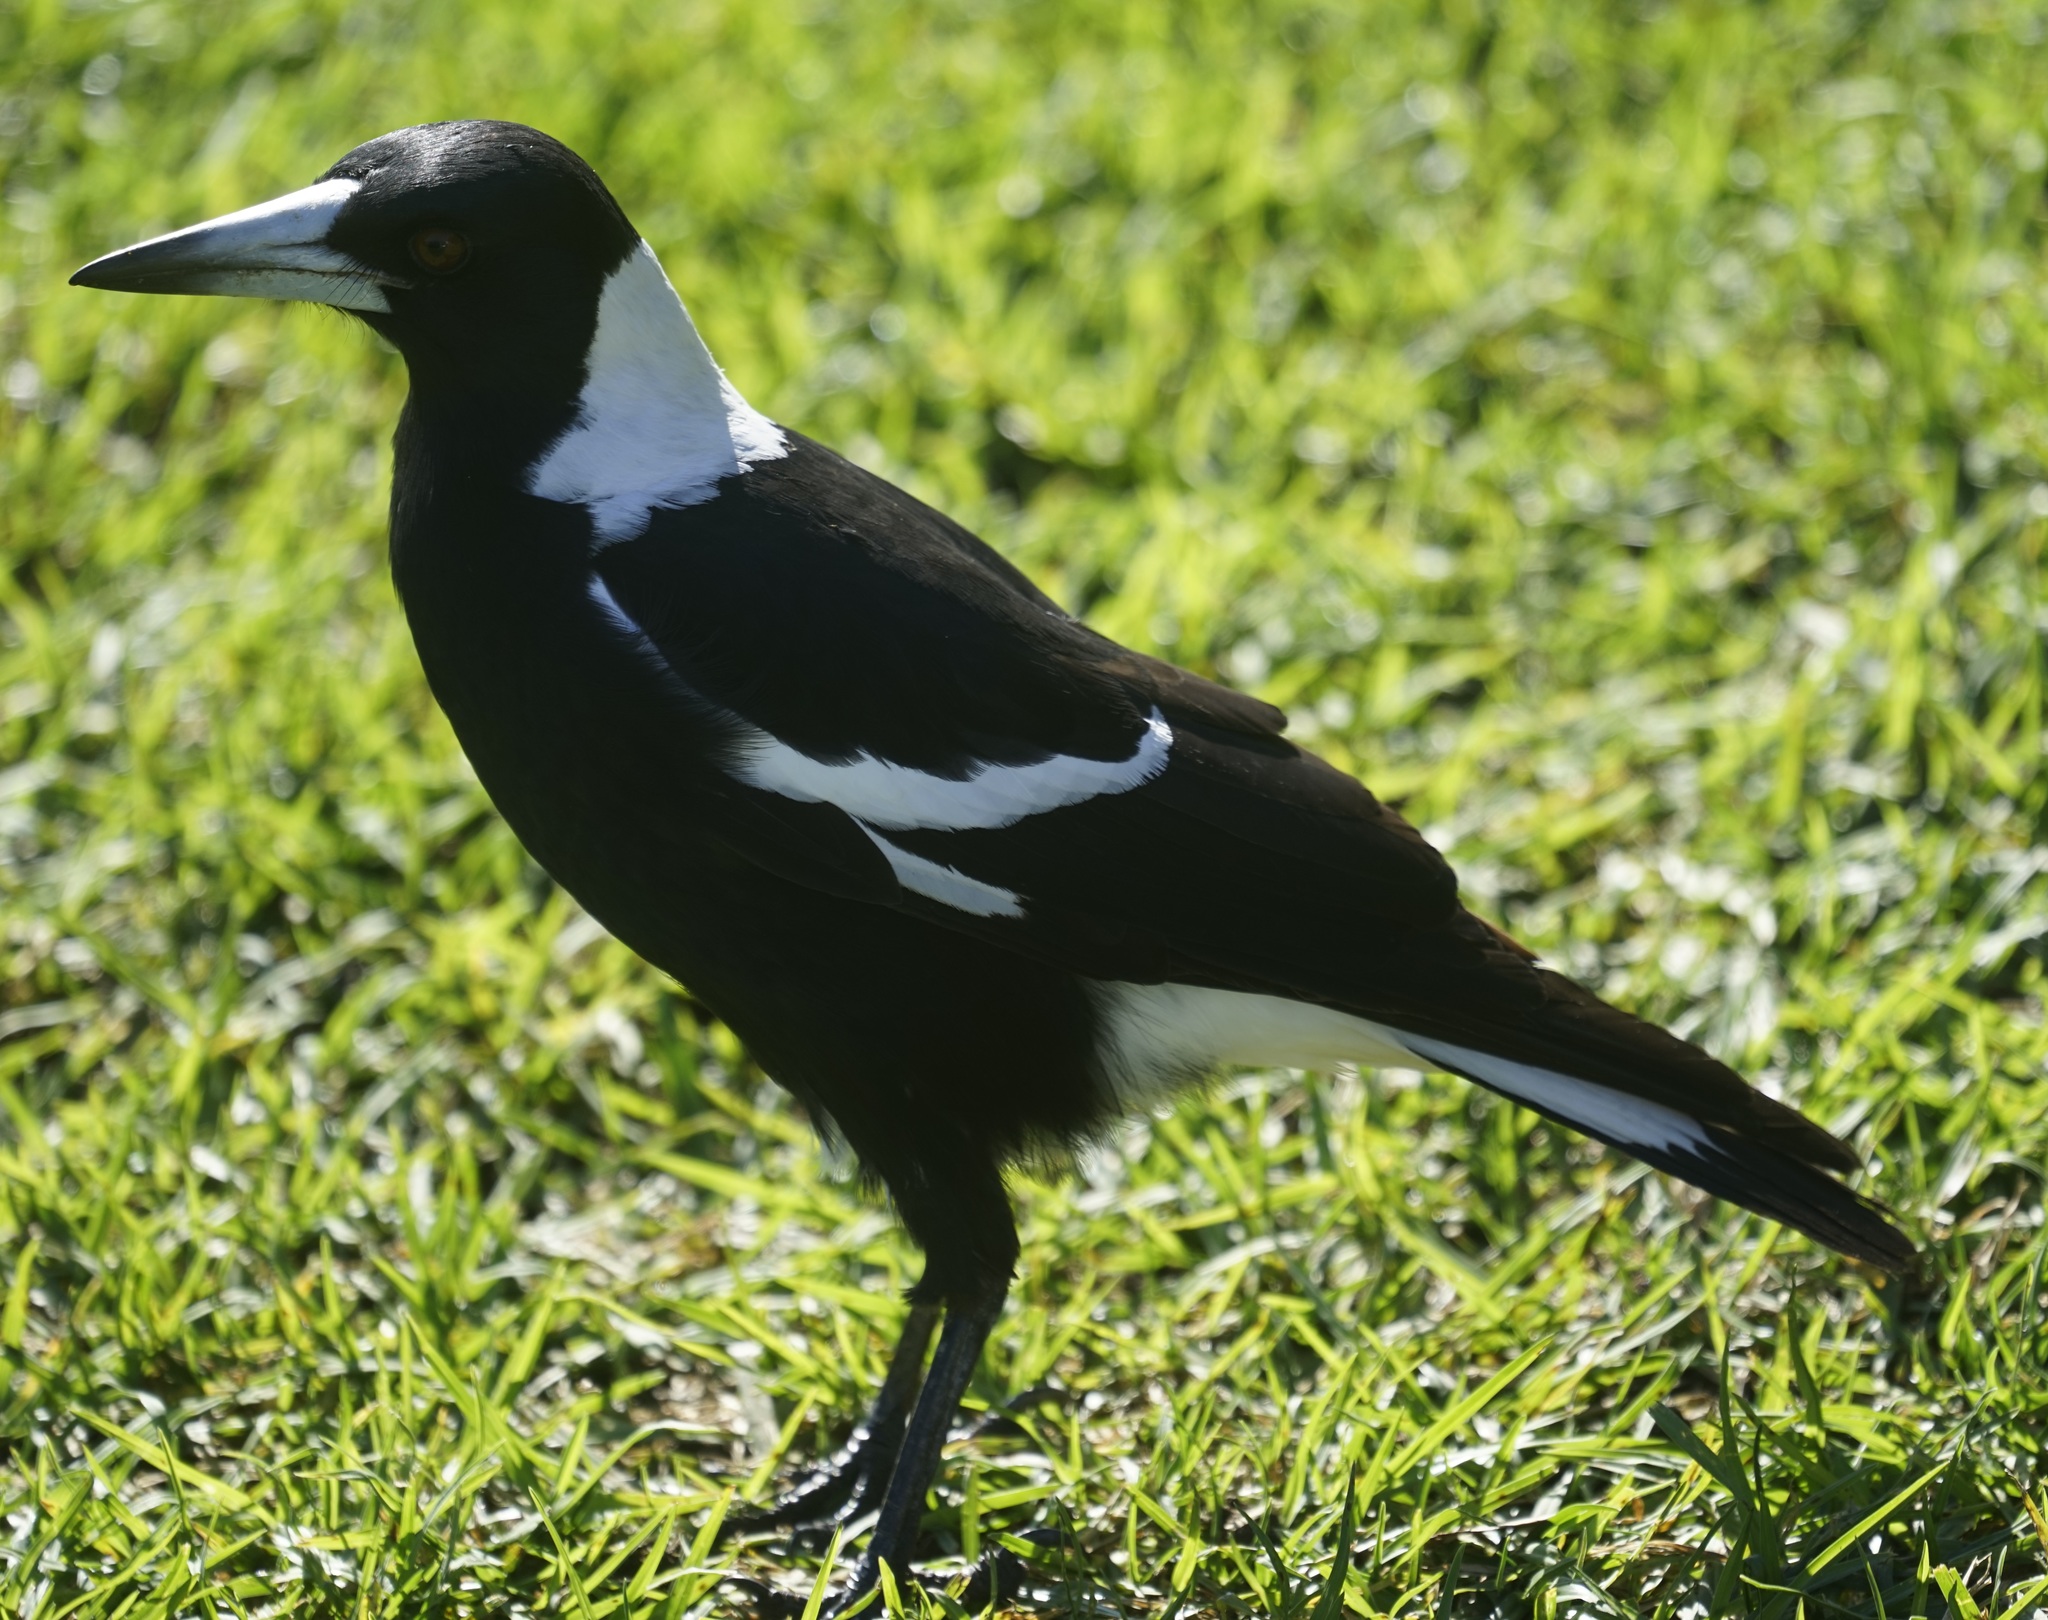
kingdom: Animalia
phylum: Chordata
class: Aves
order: Passeriformes
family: Cracticidae
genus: Gymnorhina
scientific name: Gymnorhina tibicen
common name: Australian magpie
